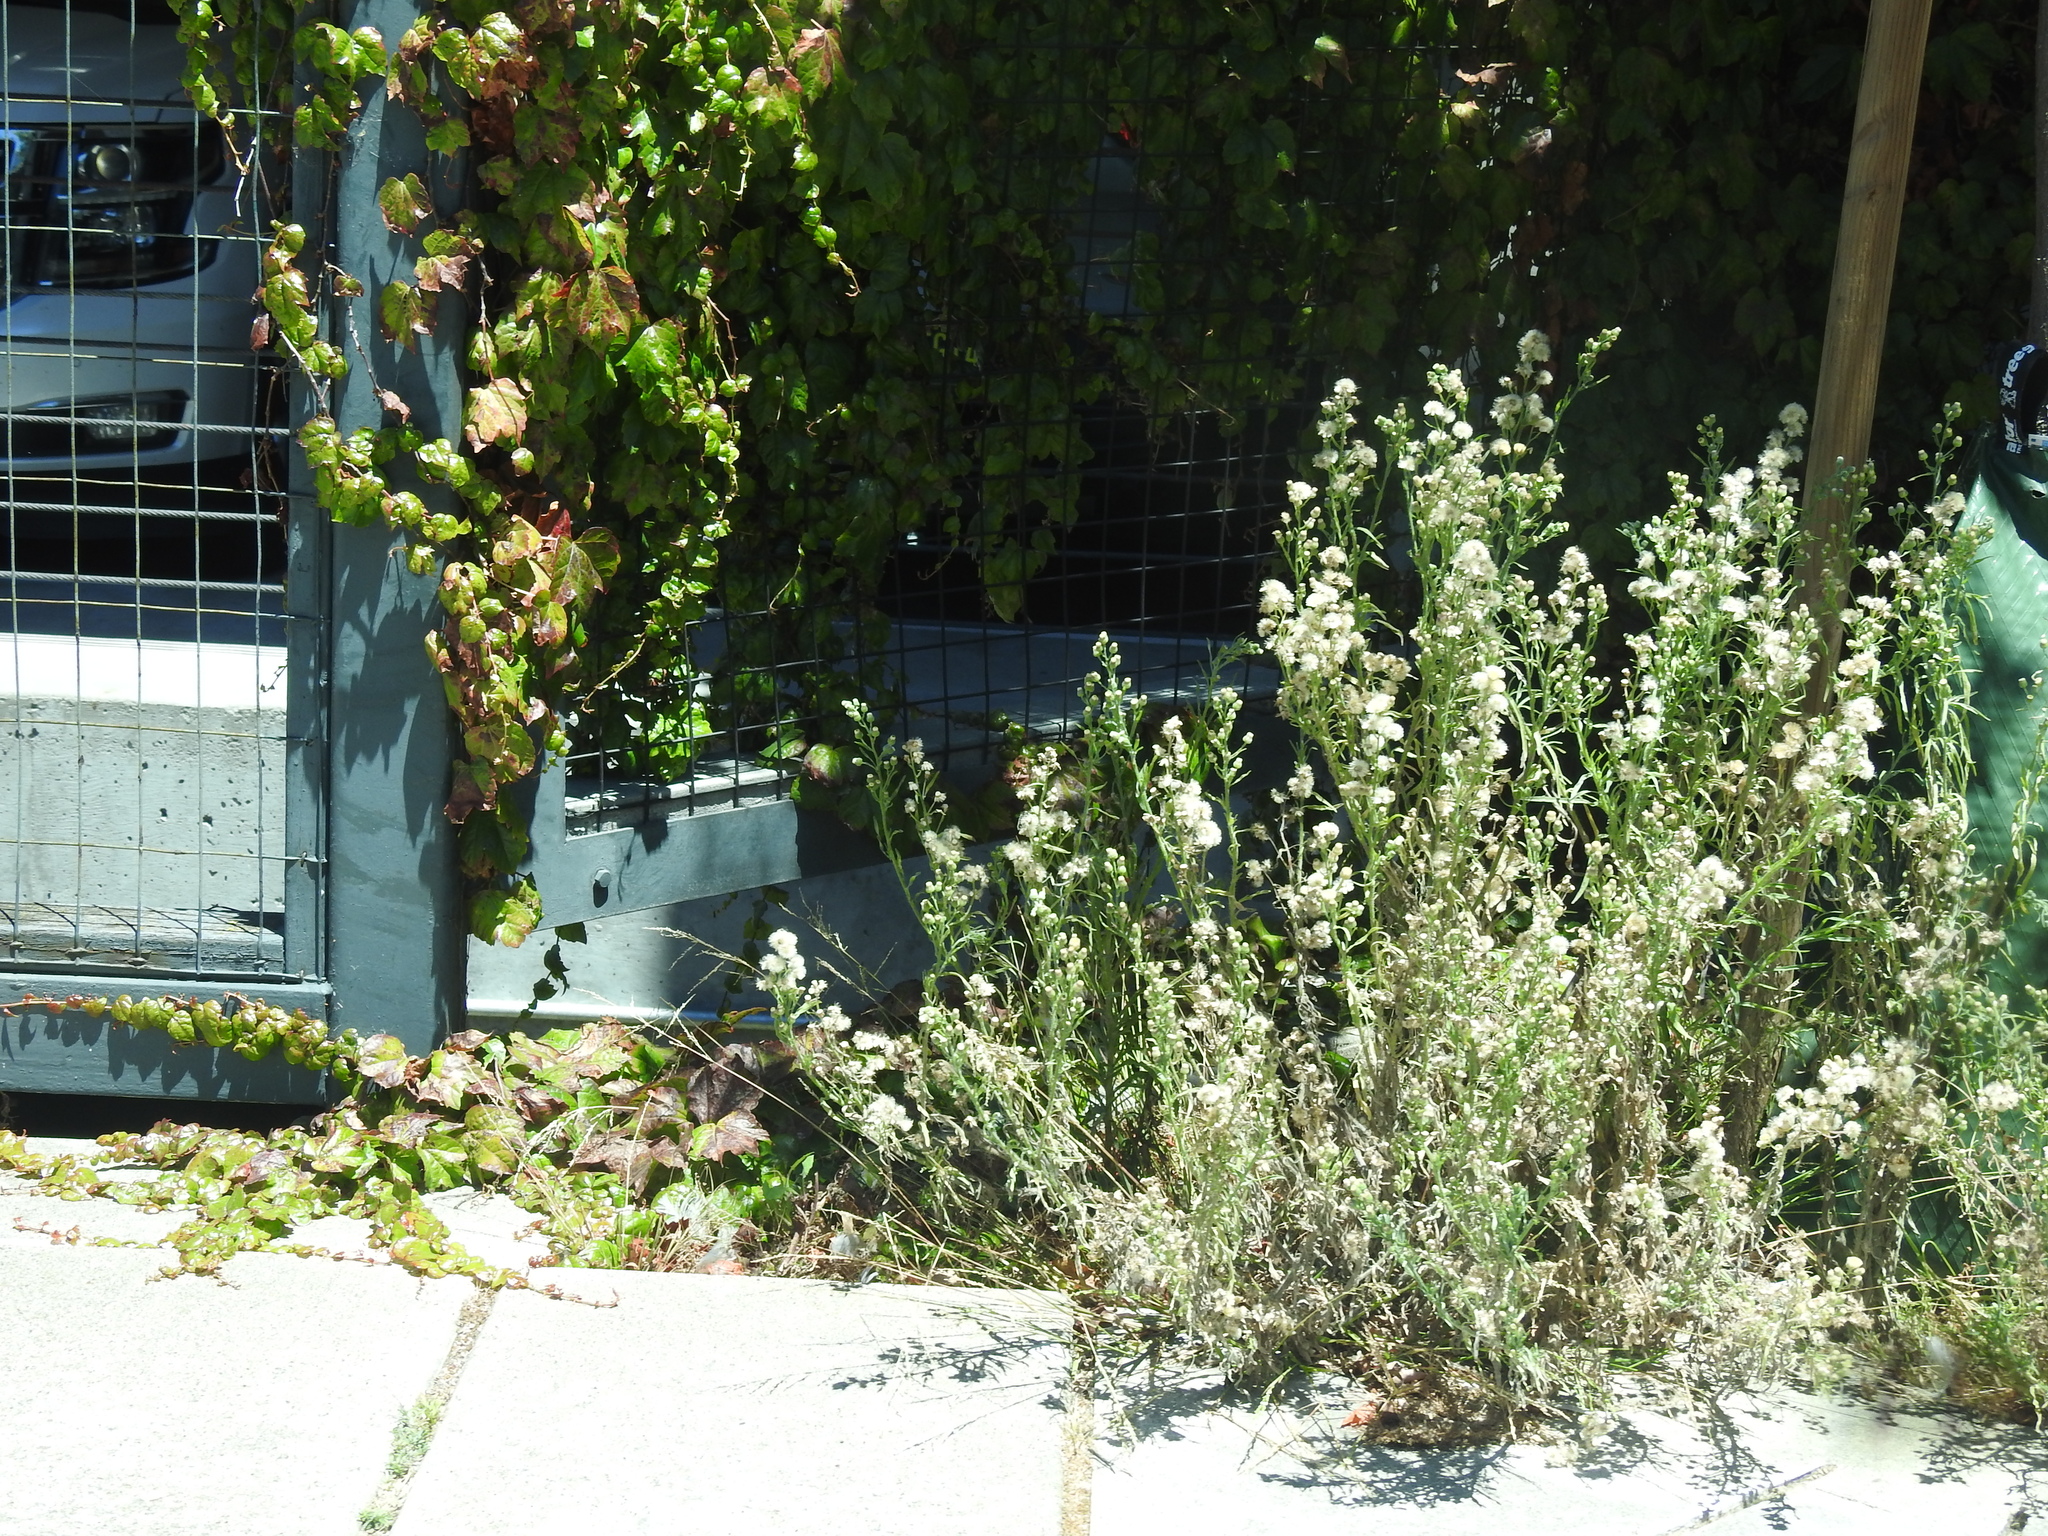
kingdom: Plantae
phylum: Tracheophyta
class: Magnoliopsida
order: Asterales
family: Asteraceae
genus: Erigeron
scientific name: Erigeron bonariensis
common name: Argentine fleabane
